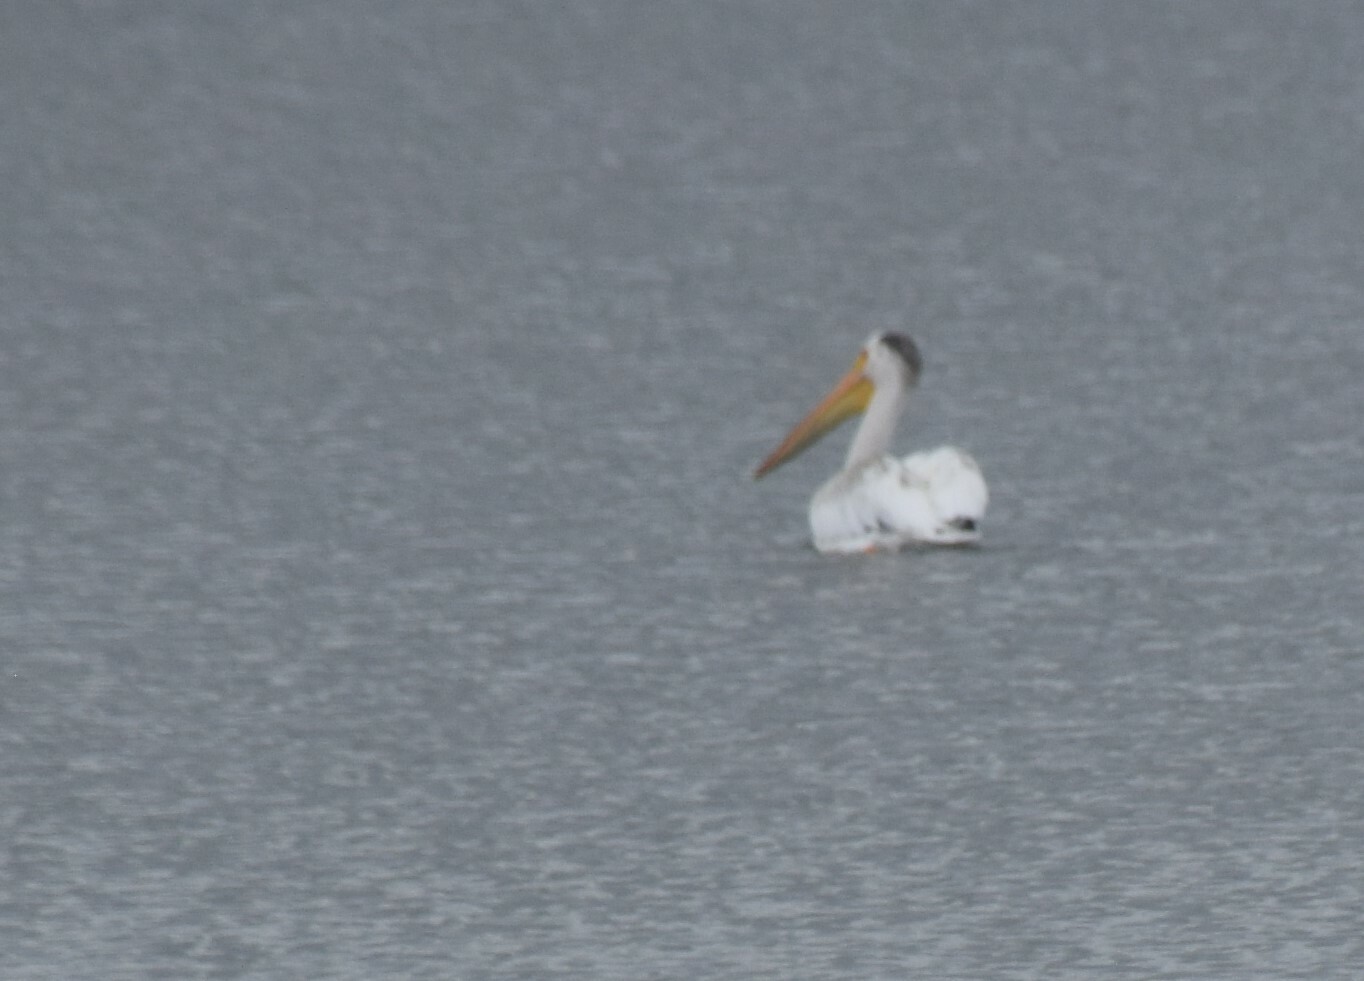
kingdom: Animalia
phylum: Chordata
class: Aves
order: Pelecaniformes
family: Pelecanidae
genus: Pelecanus
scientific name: Pelecanus erythrorhynchos
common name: American white pelican
